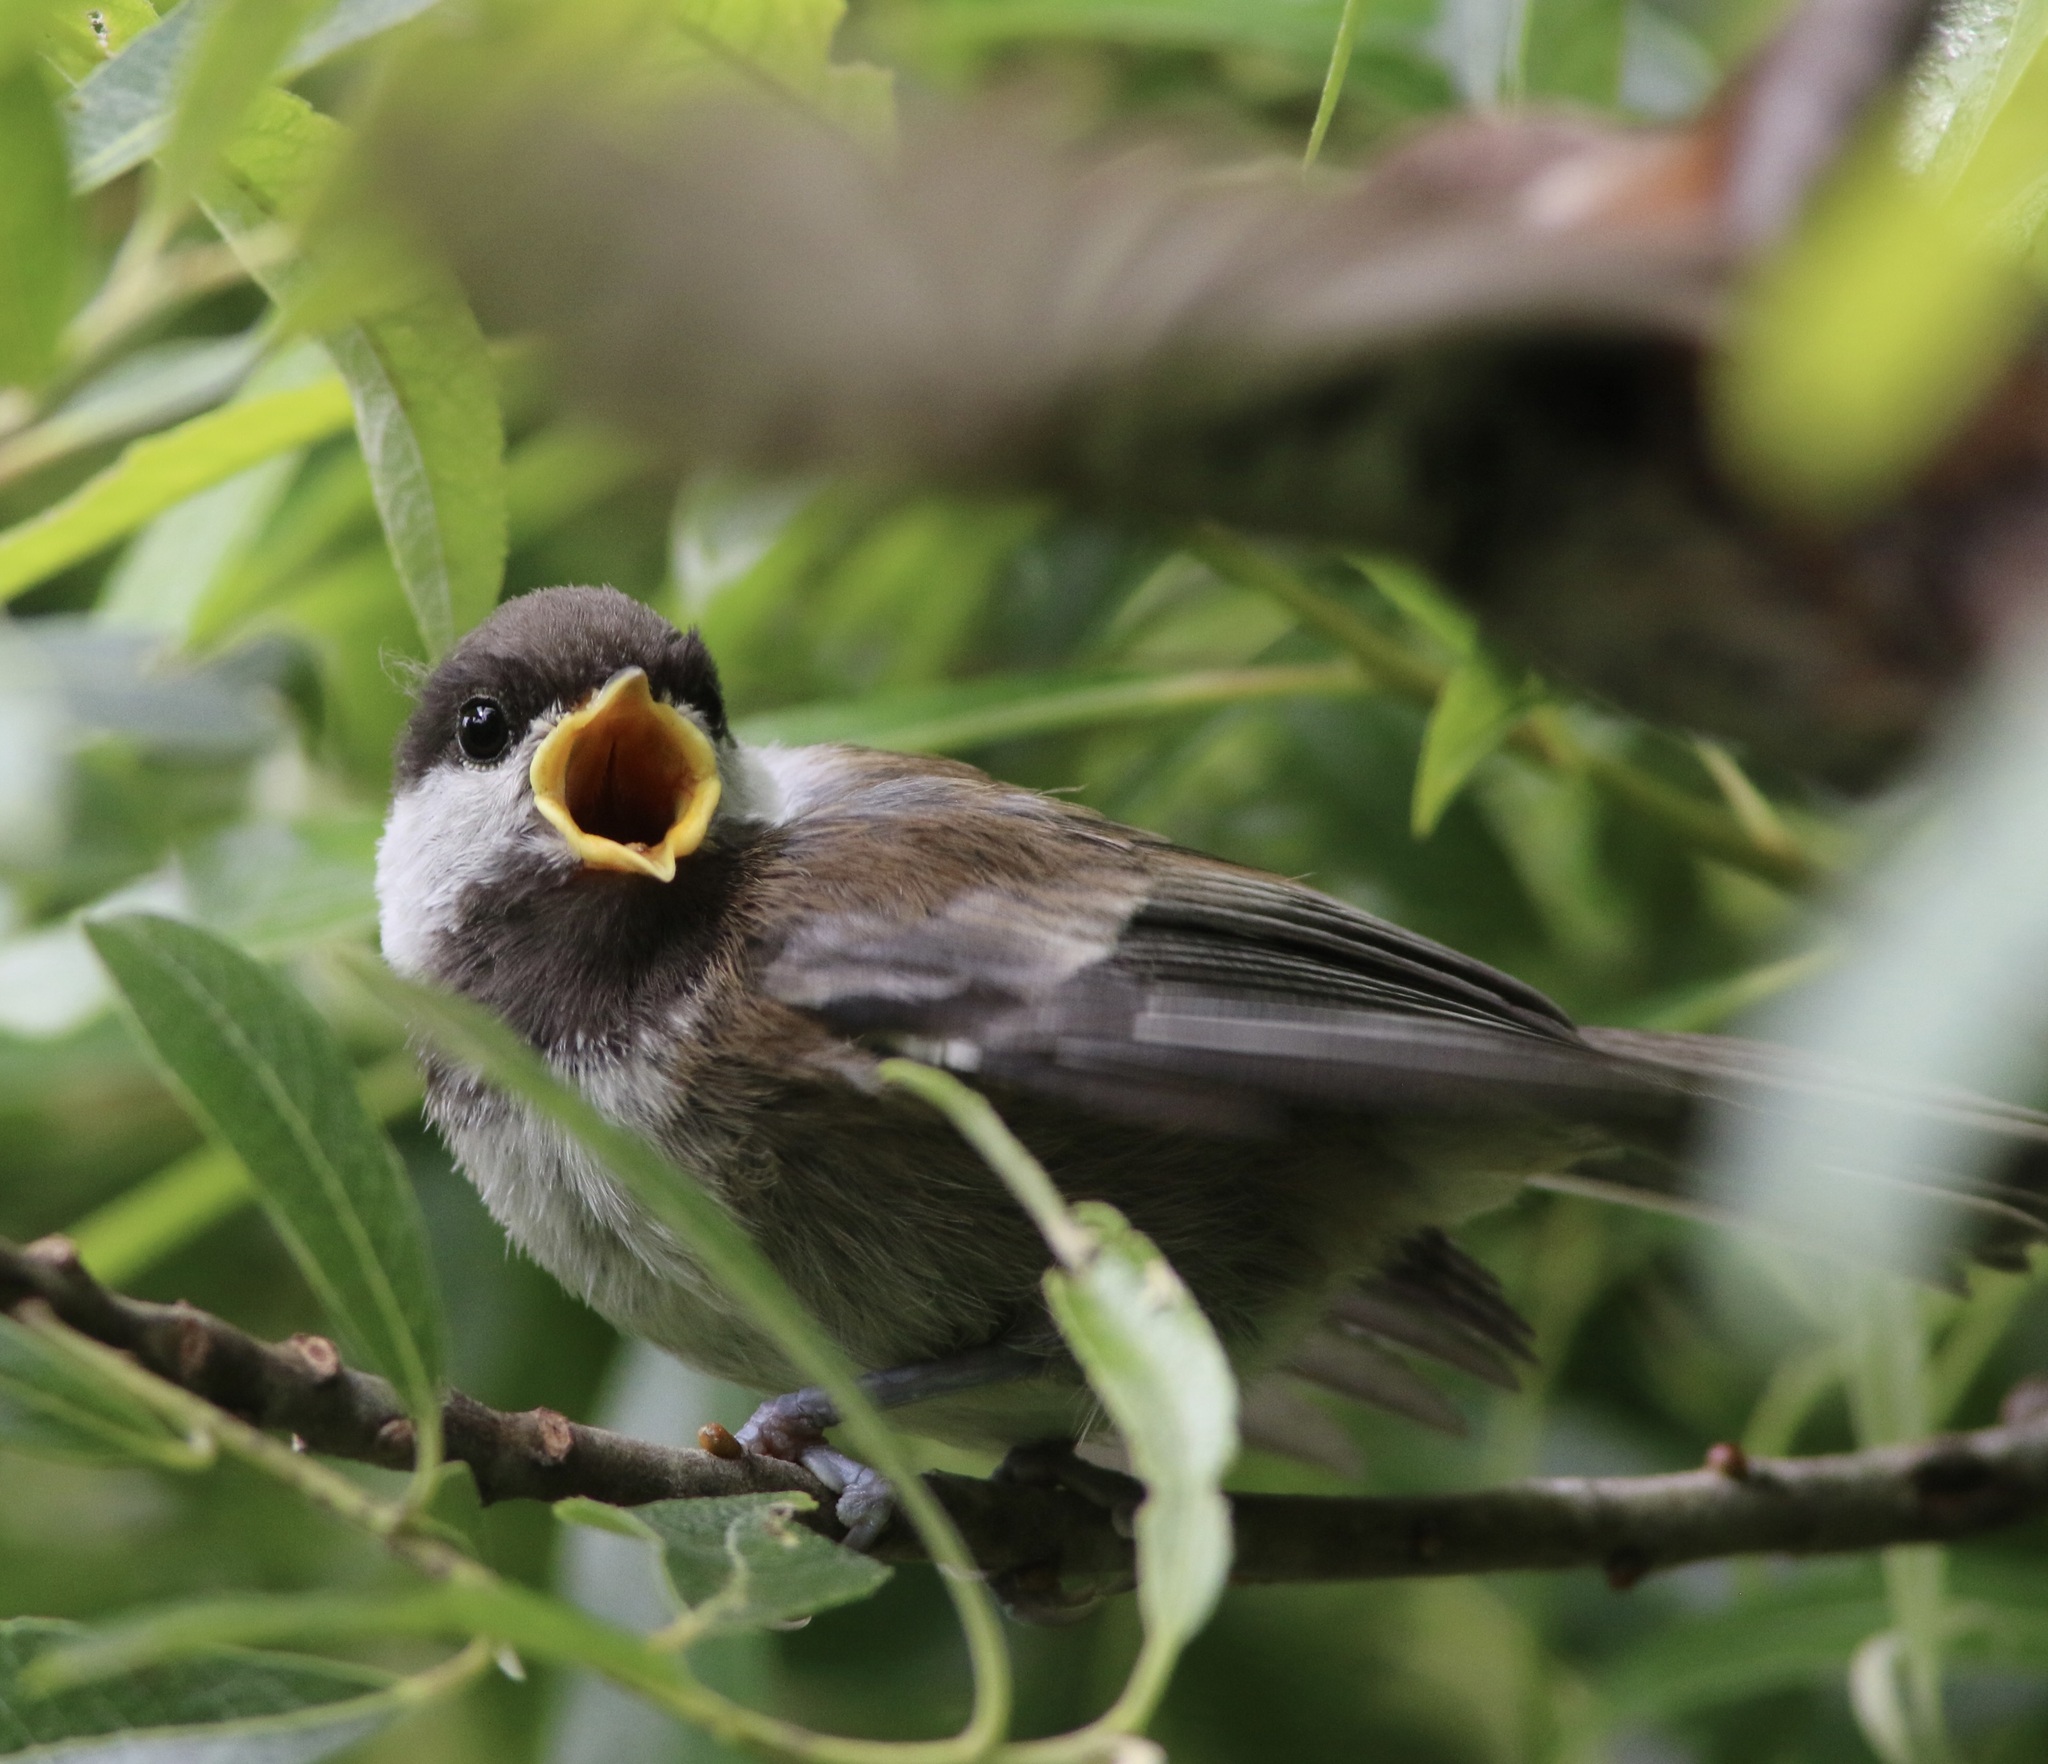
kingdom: Animalia
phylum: Chordata
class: Aves
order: Passeriformes
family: Paridae
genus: Poecile
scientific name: Poecile rufescens
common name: Chestnut-backed chickadee
